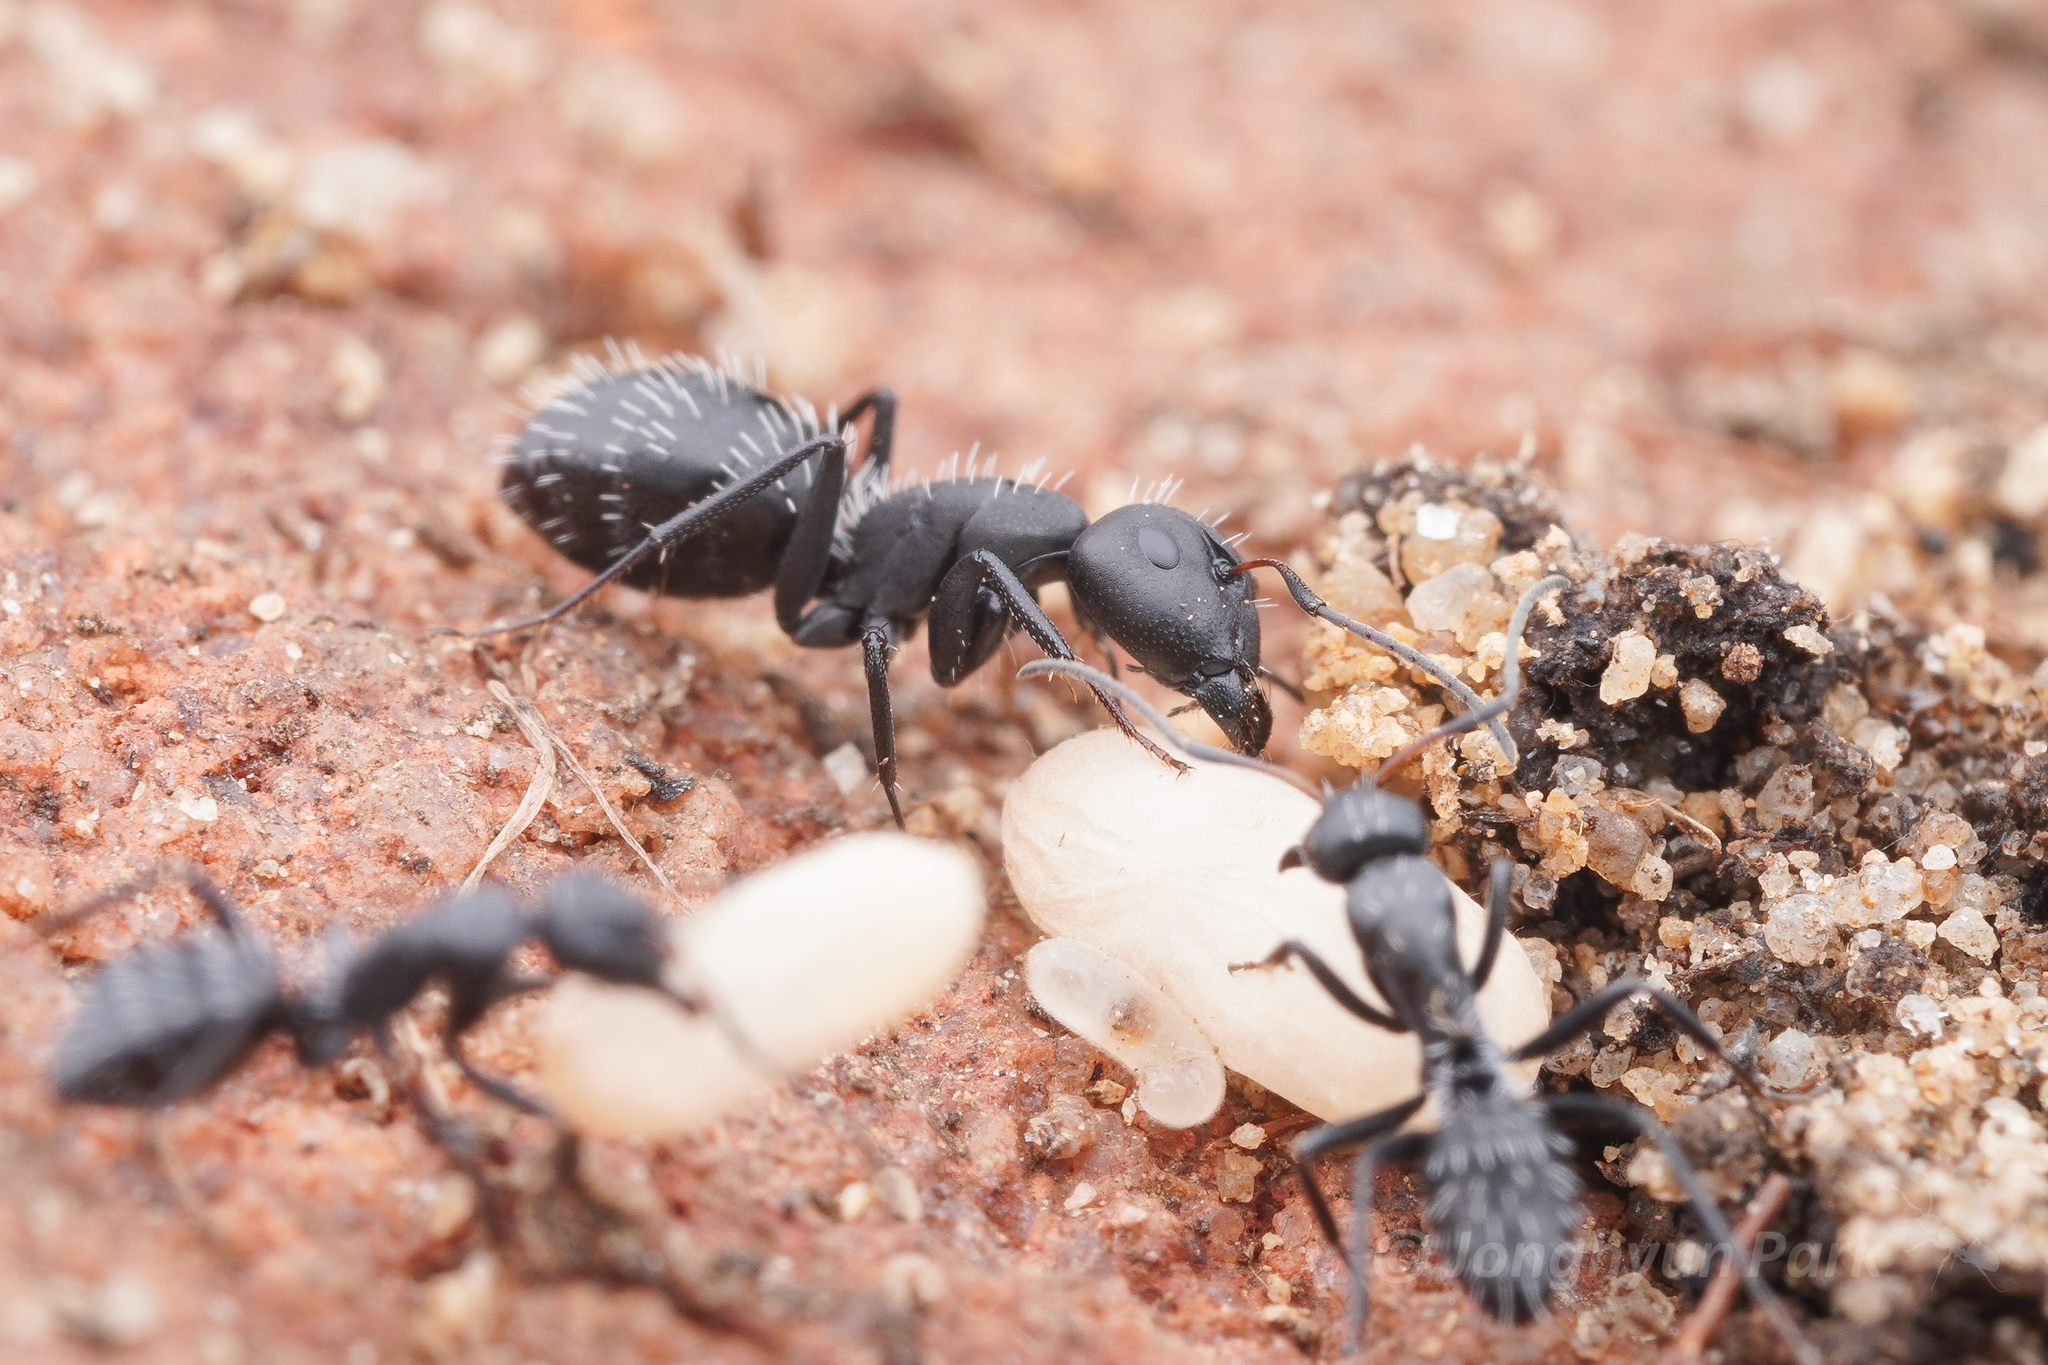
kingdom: Animalia
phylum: Arthropoda
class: Insecta
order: Hymenoptera
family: Formicidae
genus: Camponotus
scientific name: Camponotus niveosetosus
